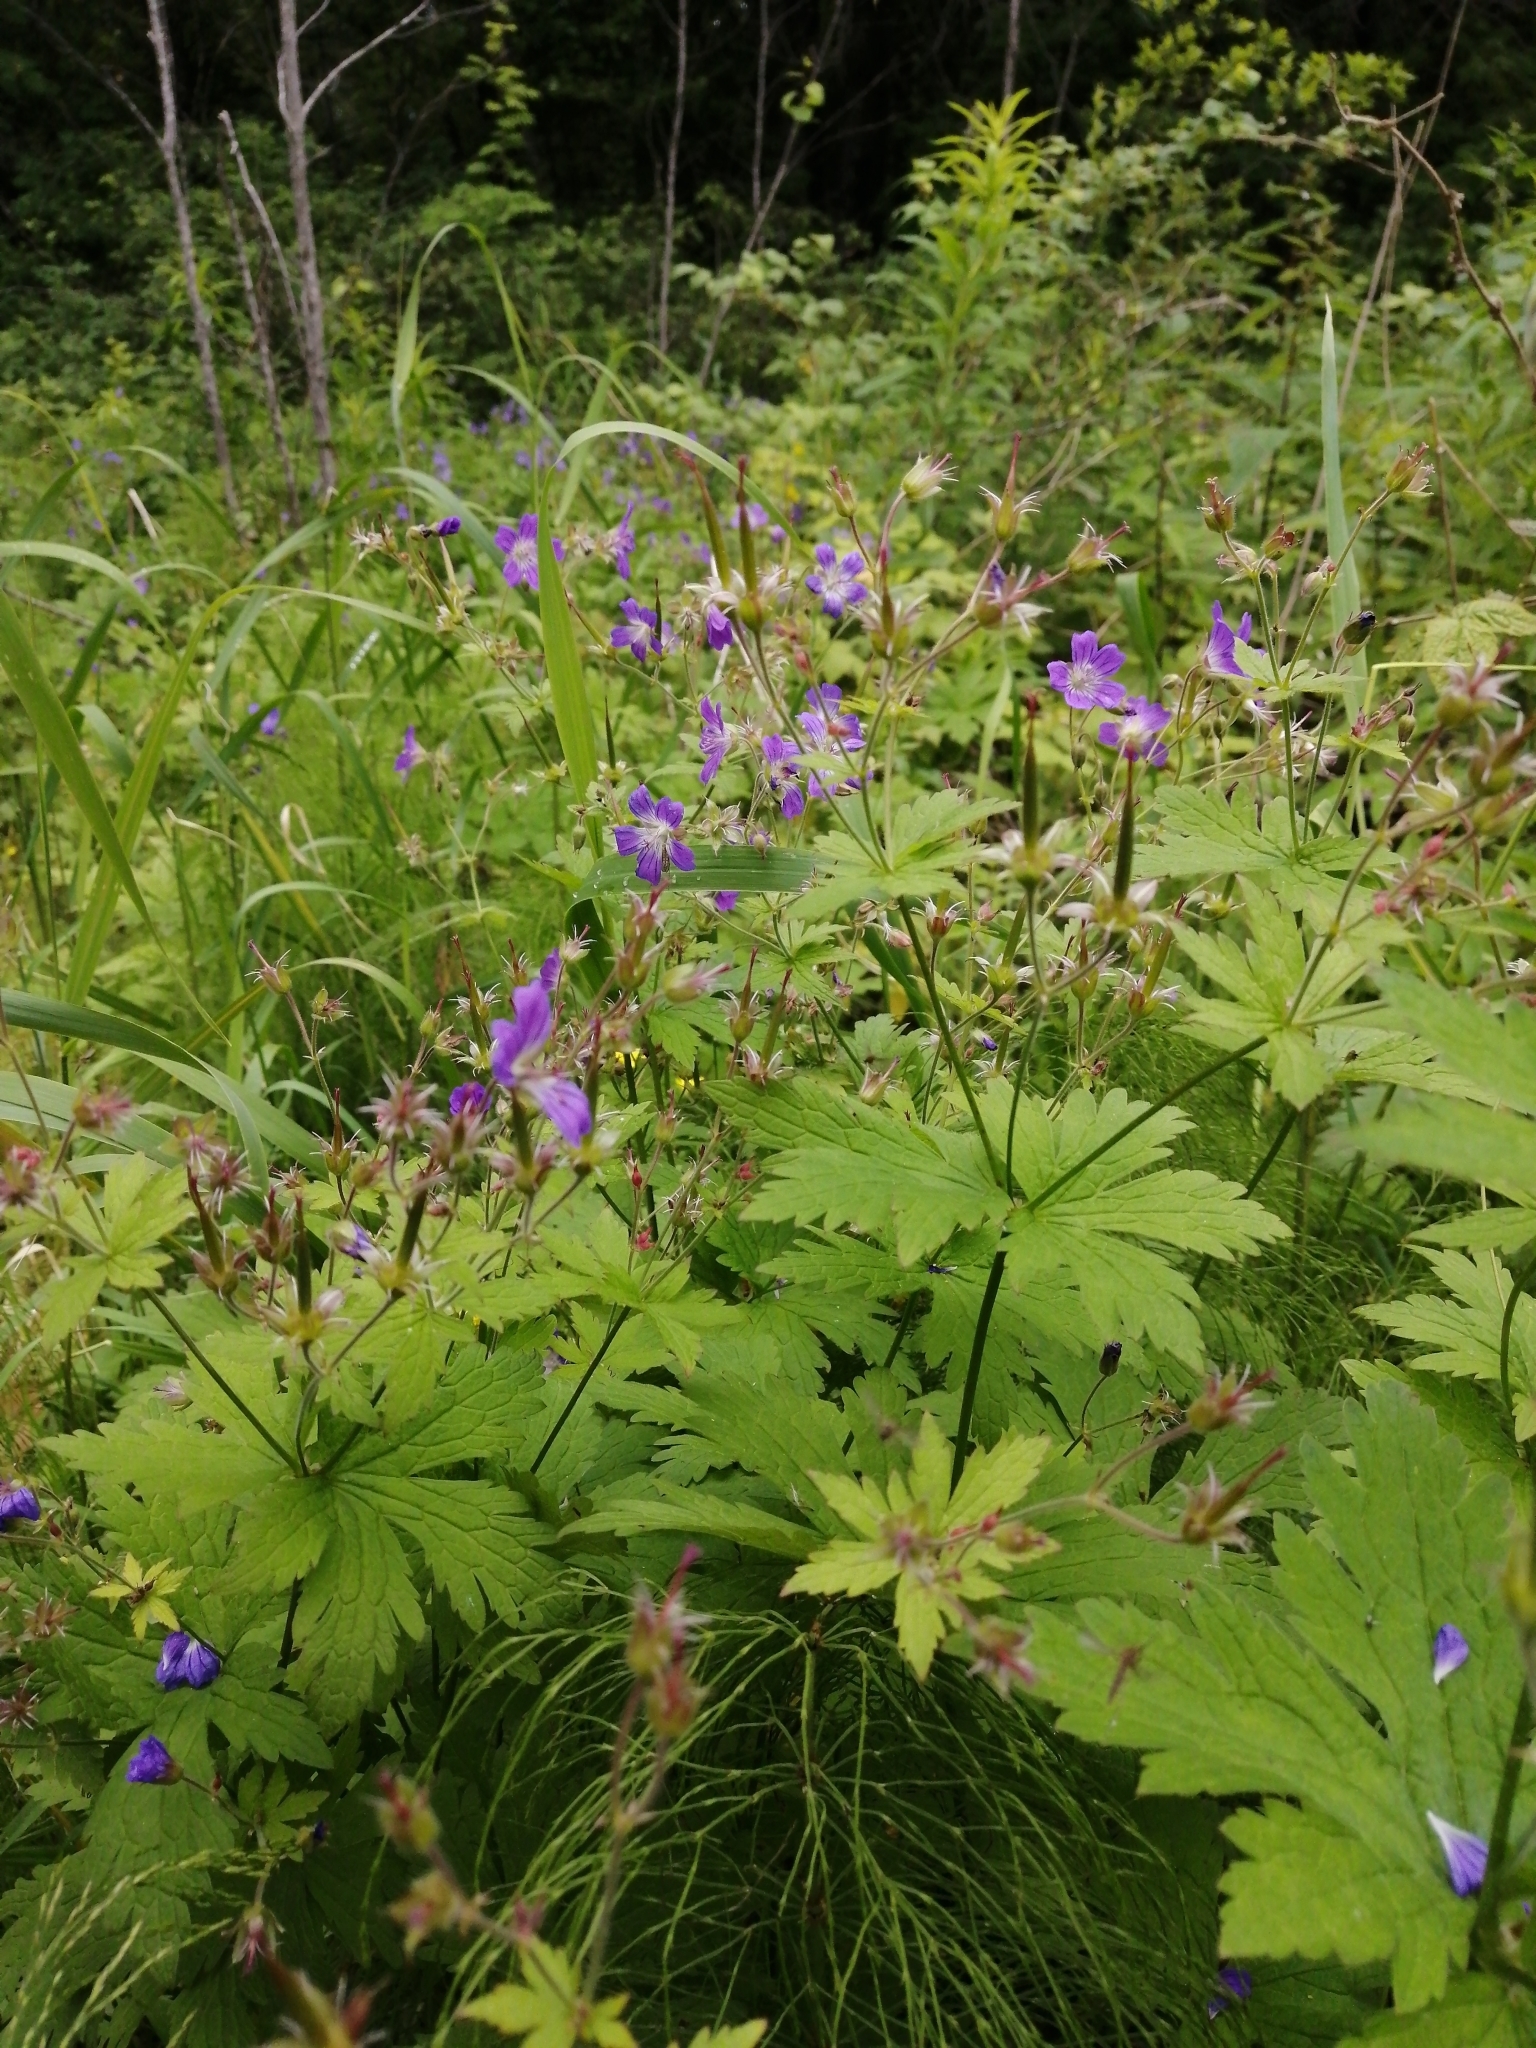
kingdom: Plantae
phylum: Tracheophyta
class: Magnoliopsida
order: Geraniales
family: Geraniaceae
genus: Geranium
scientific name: Geranium sylvaticum
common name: Wood crane's-bill
